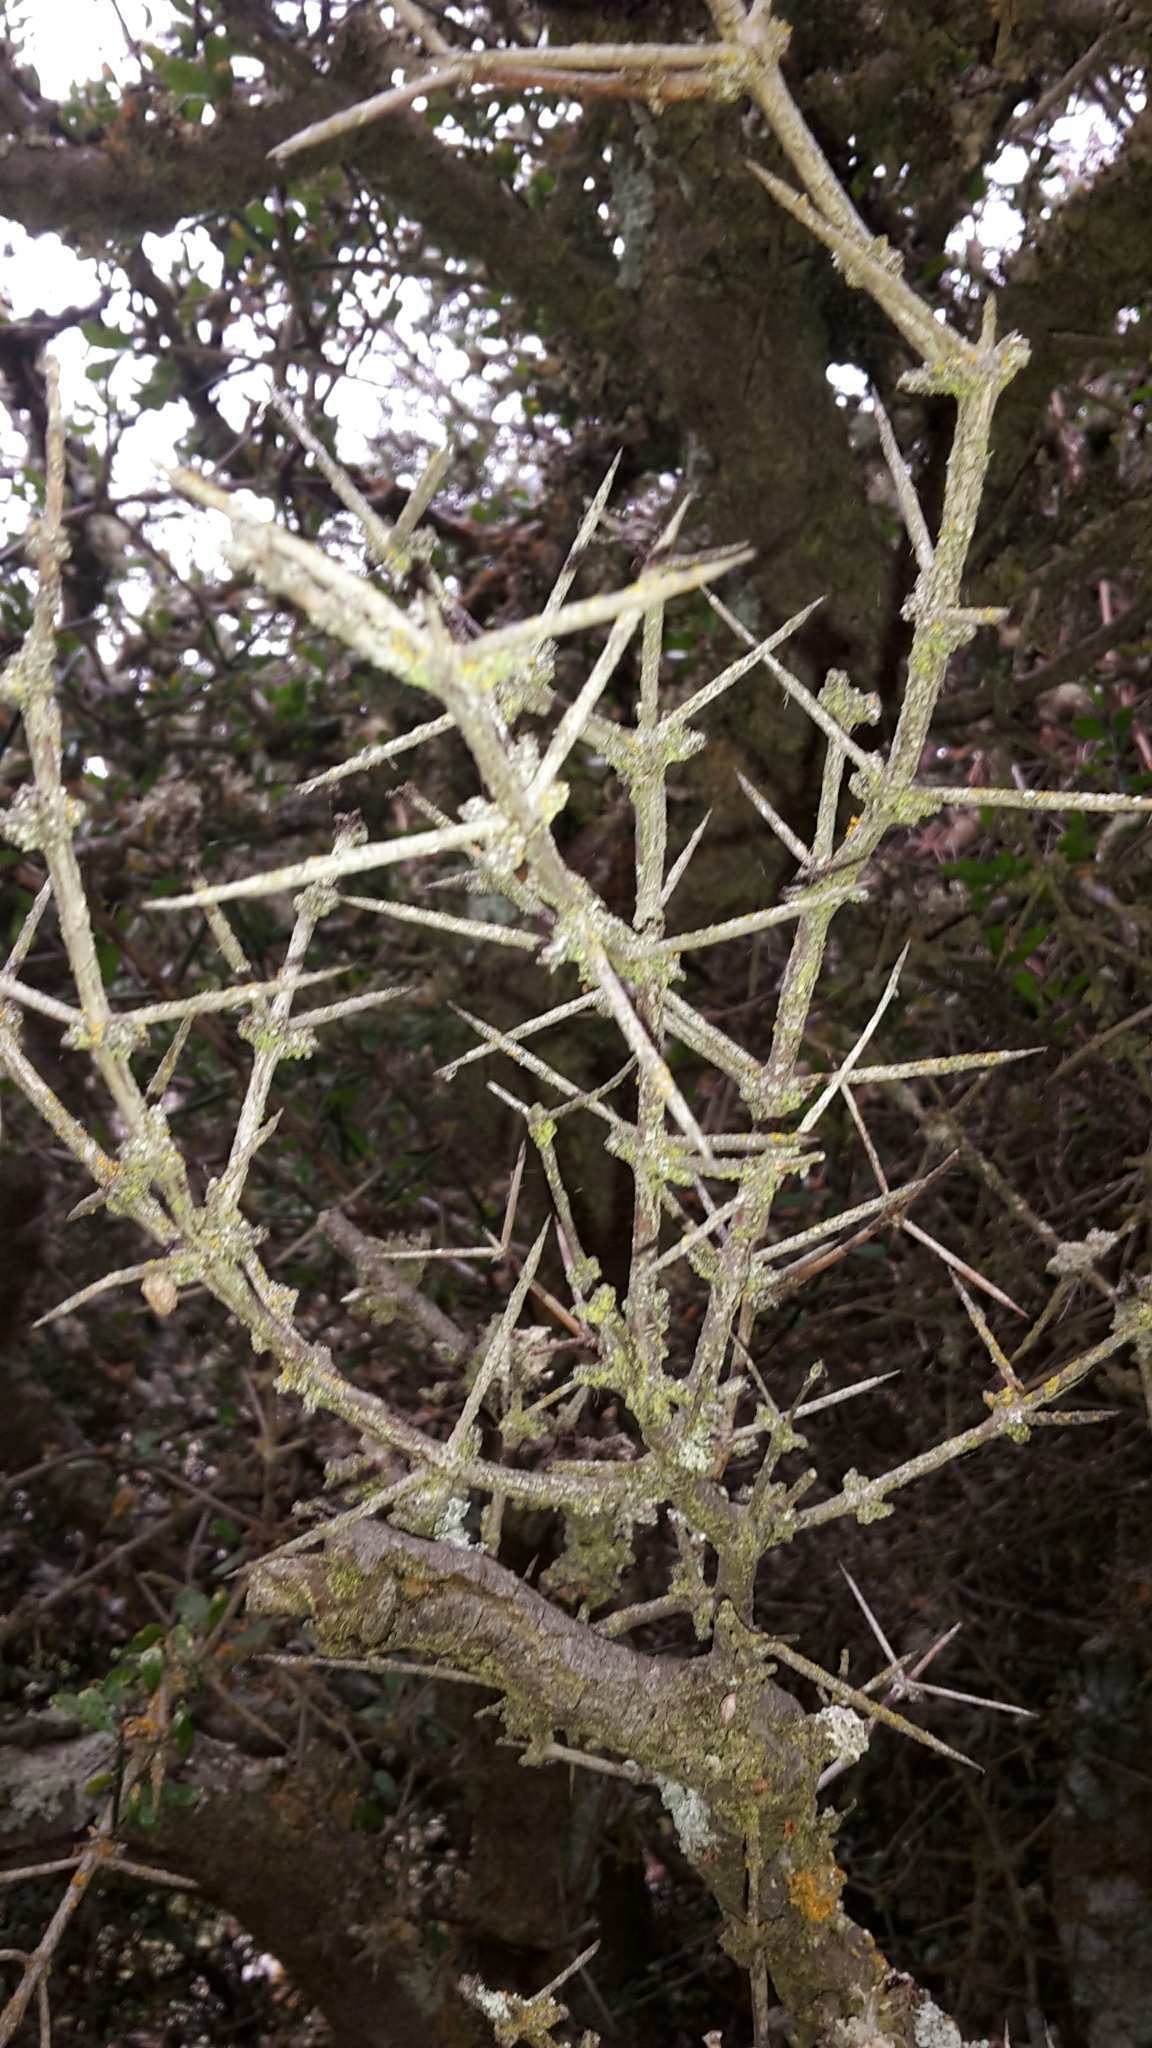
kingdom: Plantae
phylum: Tracheophyta
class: Magnoliopsida
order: Rosales
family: Rhamnaceae
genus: Discaria
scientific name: Discaria toumatou
